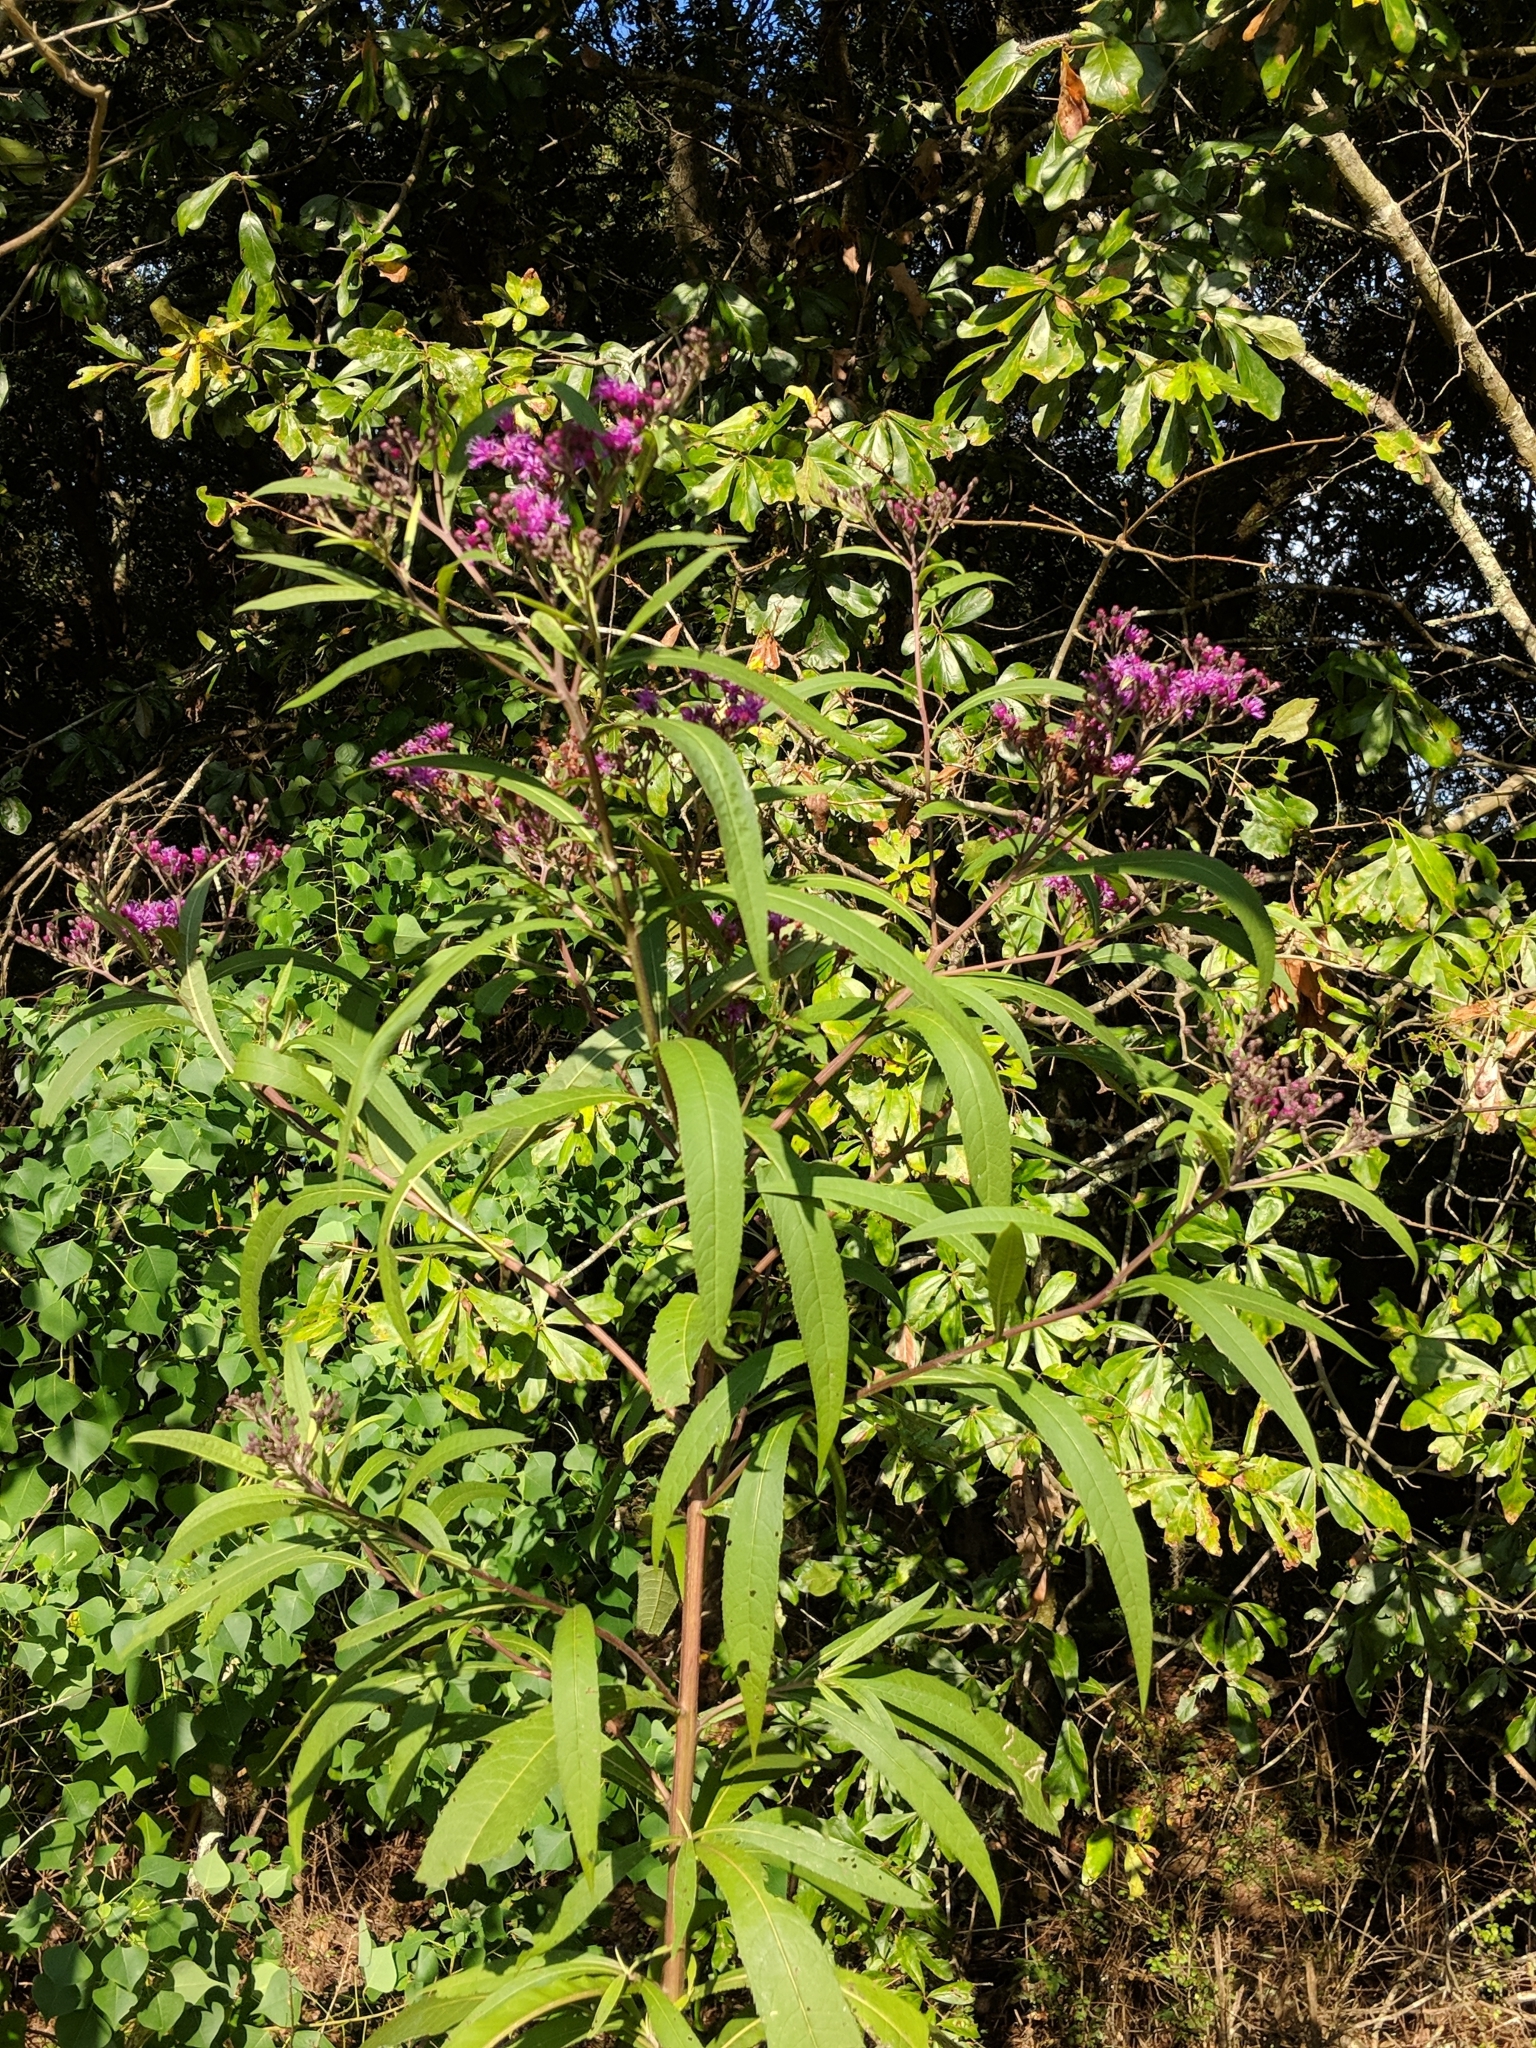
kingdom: Plantae
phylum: Tracheophyta
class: Magnoliopsida
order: Asterales
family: Asteraceae
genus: Vernonia
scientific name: Vernonia gigantea
